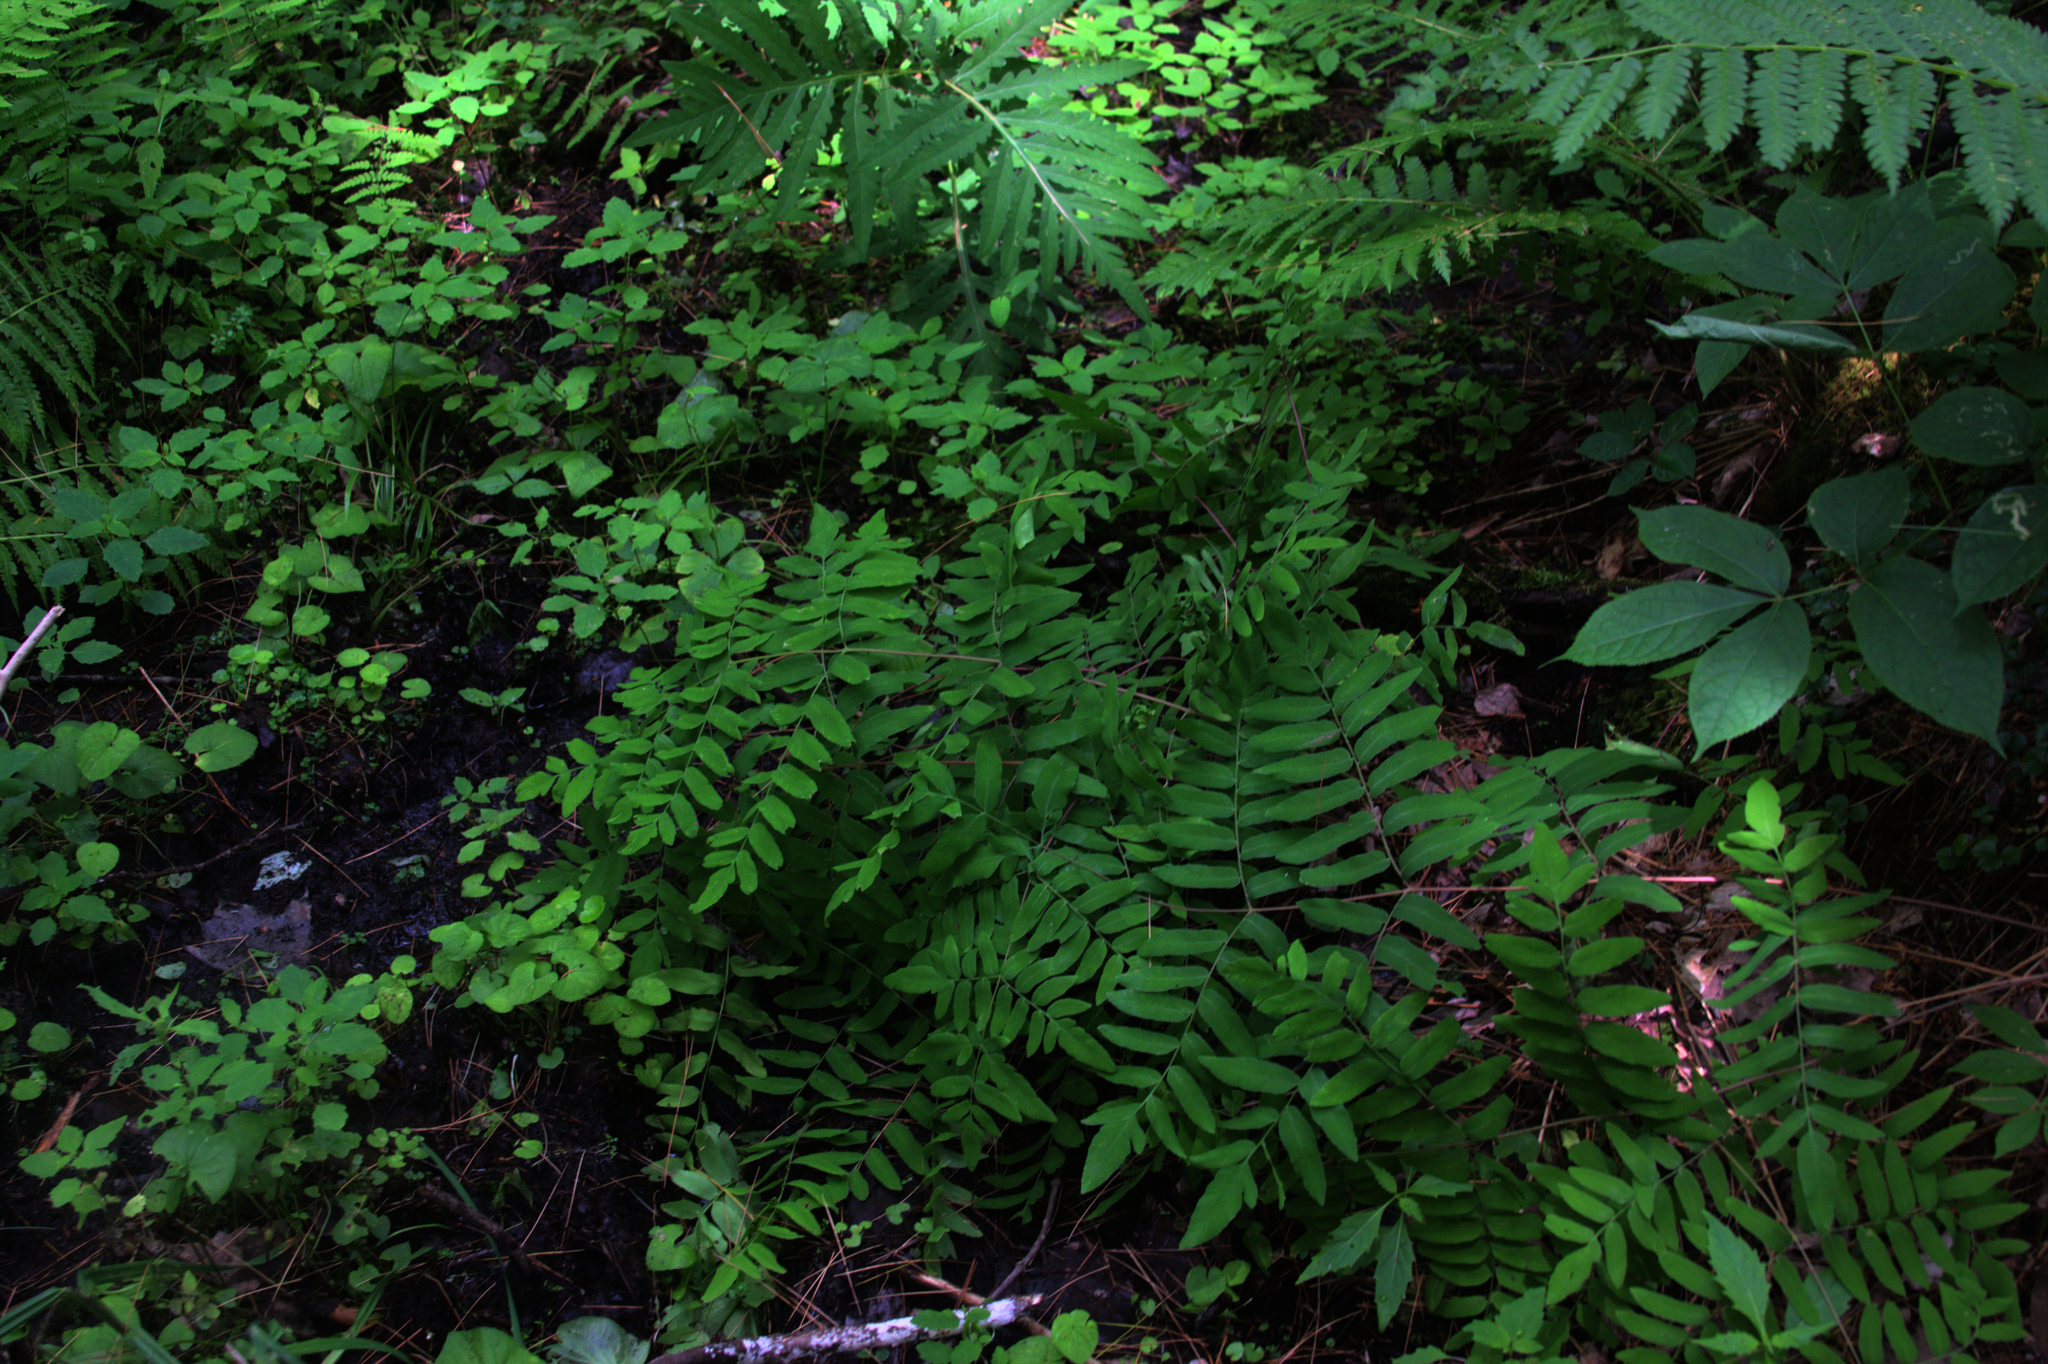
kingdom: Plantae
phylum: Tracheophyta
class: Polypodiopsida
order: Osmundales
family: Osmundaceae
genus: Osmunda
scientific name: Osmunda spectabilis
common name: American royal fern
